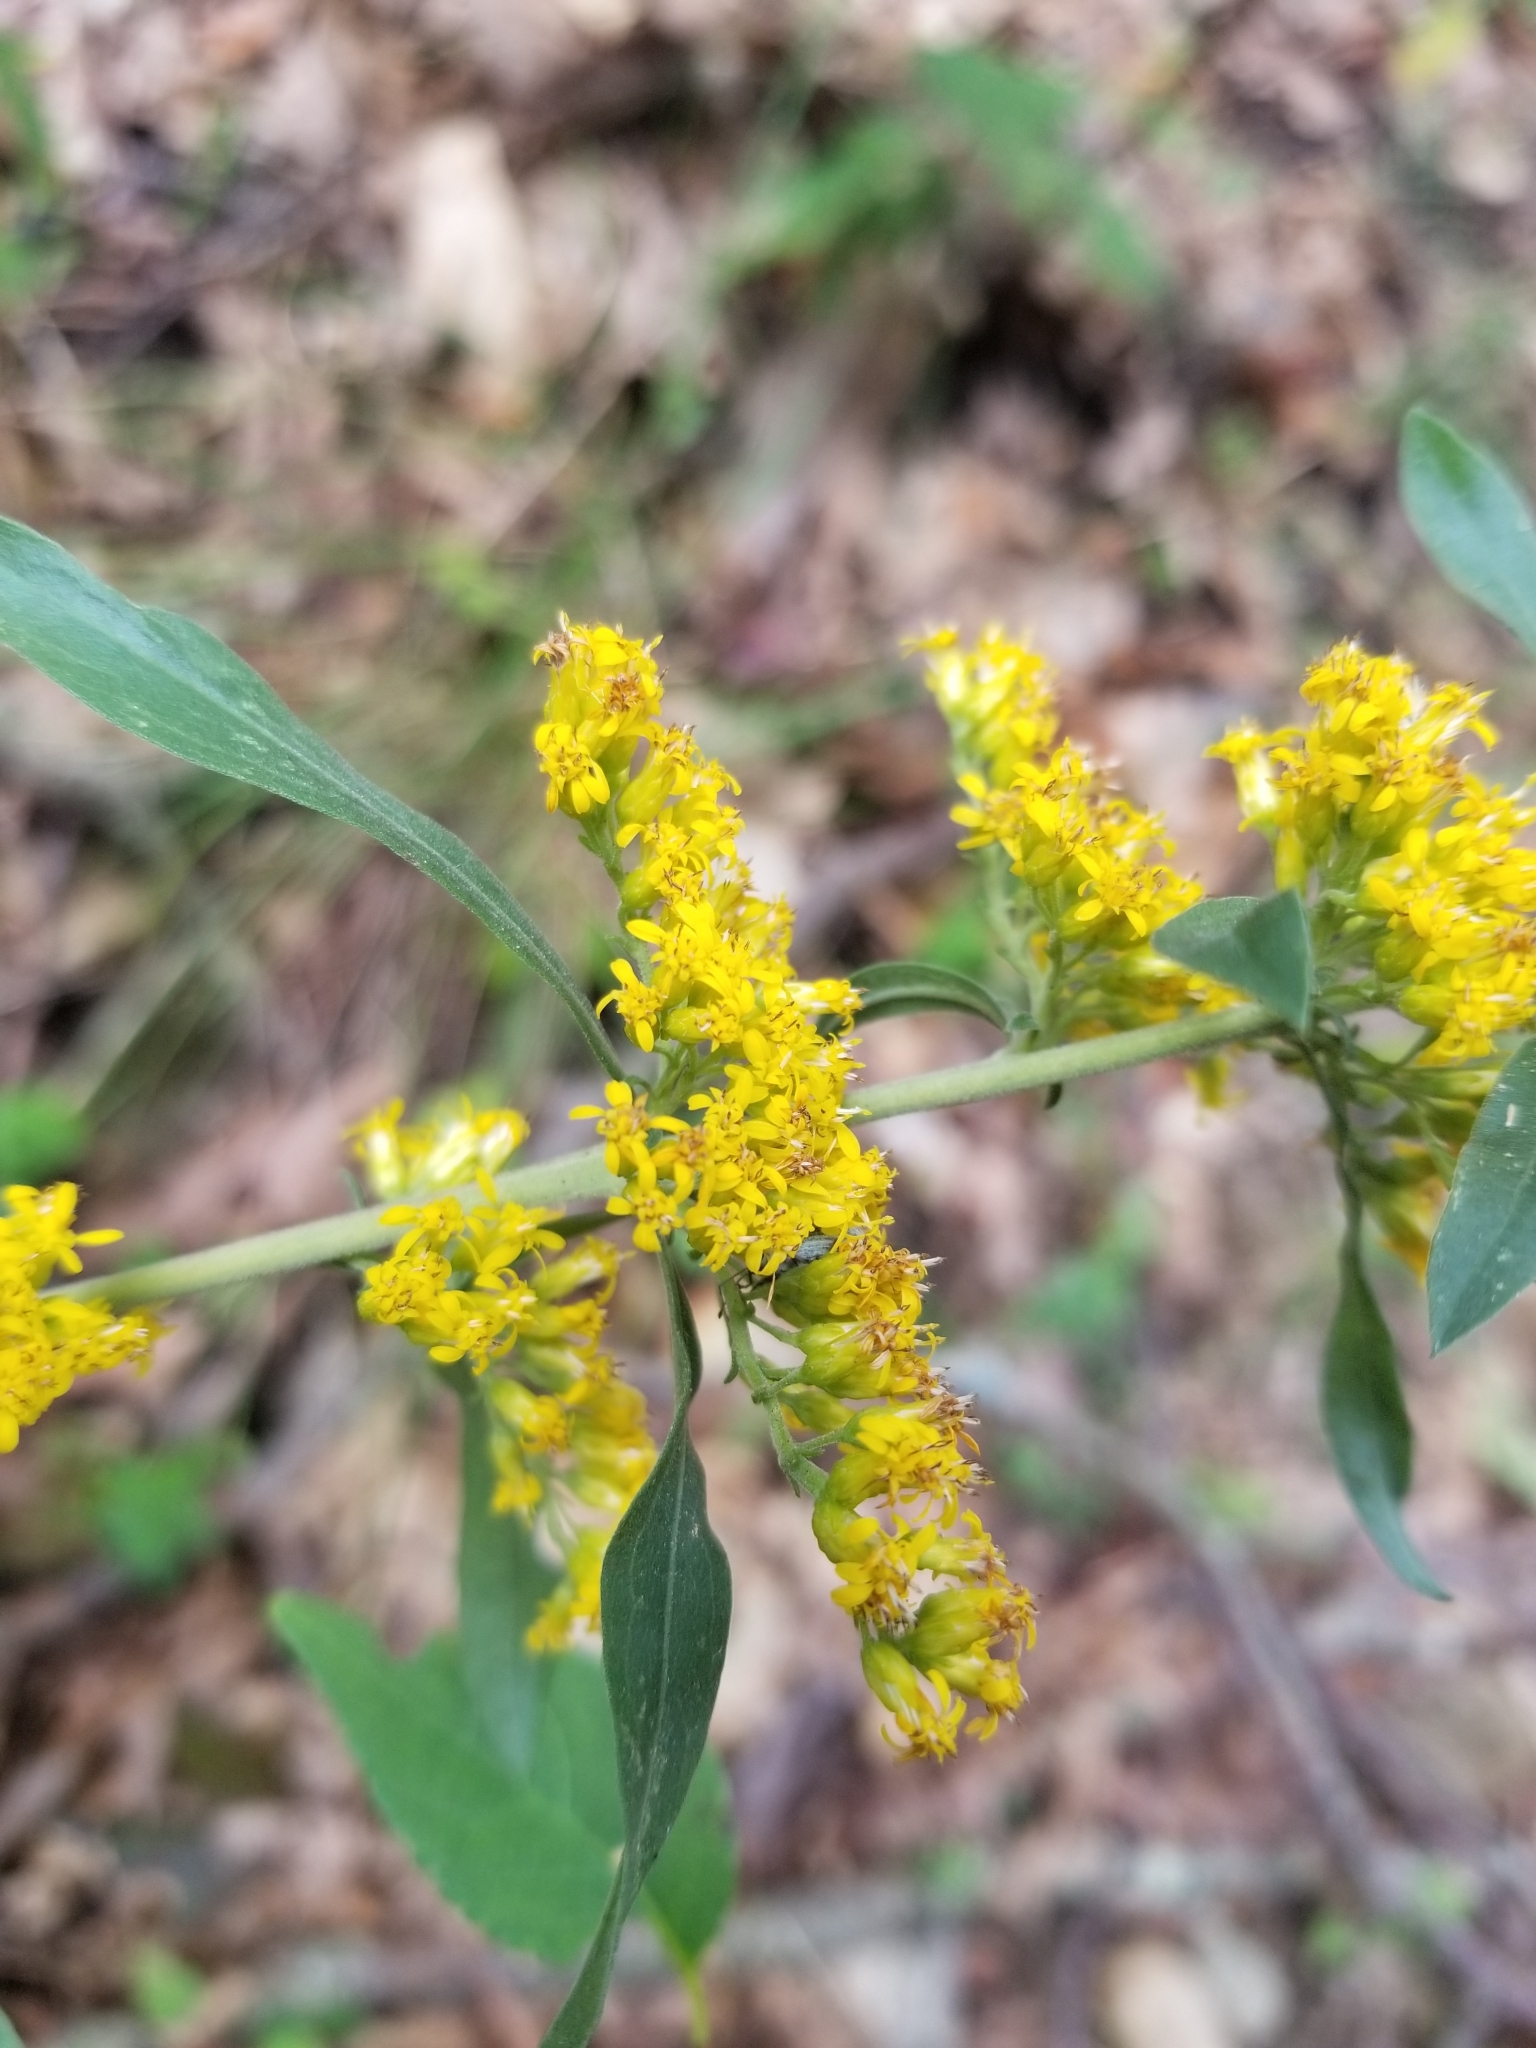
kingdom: Plantae
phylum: Tracheophyta
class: Magnoliopsida
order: Asterales
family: Asteraceae
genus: Solidago
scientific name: Solidago nemoralis
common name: Grey goldenrod
